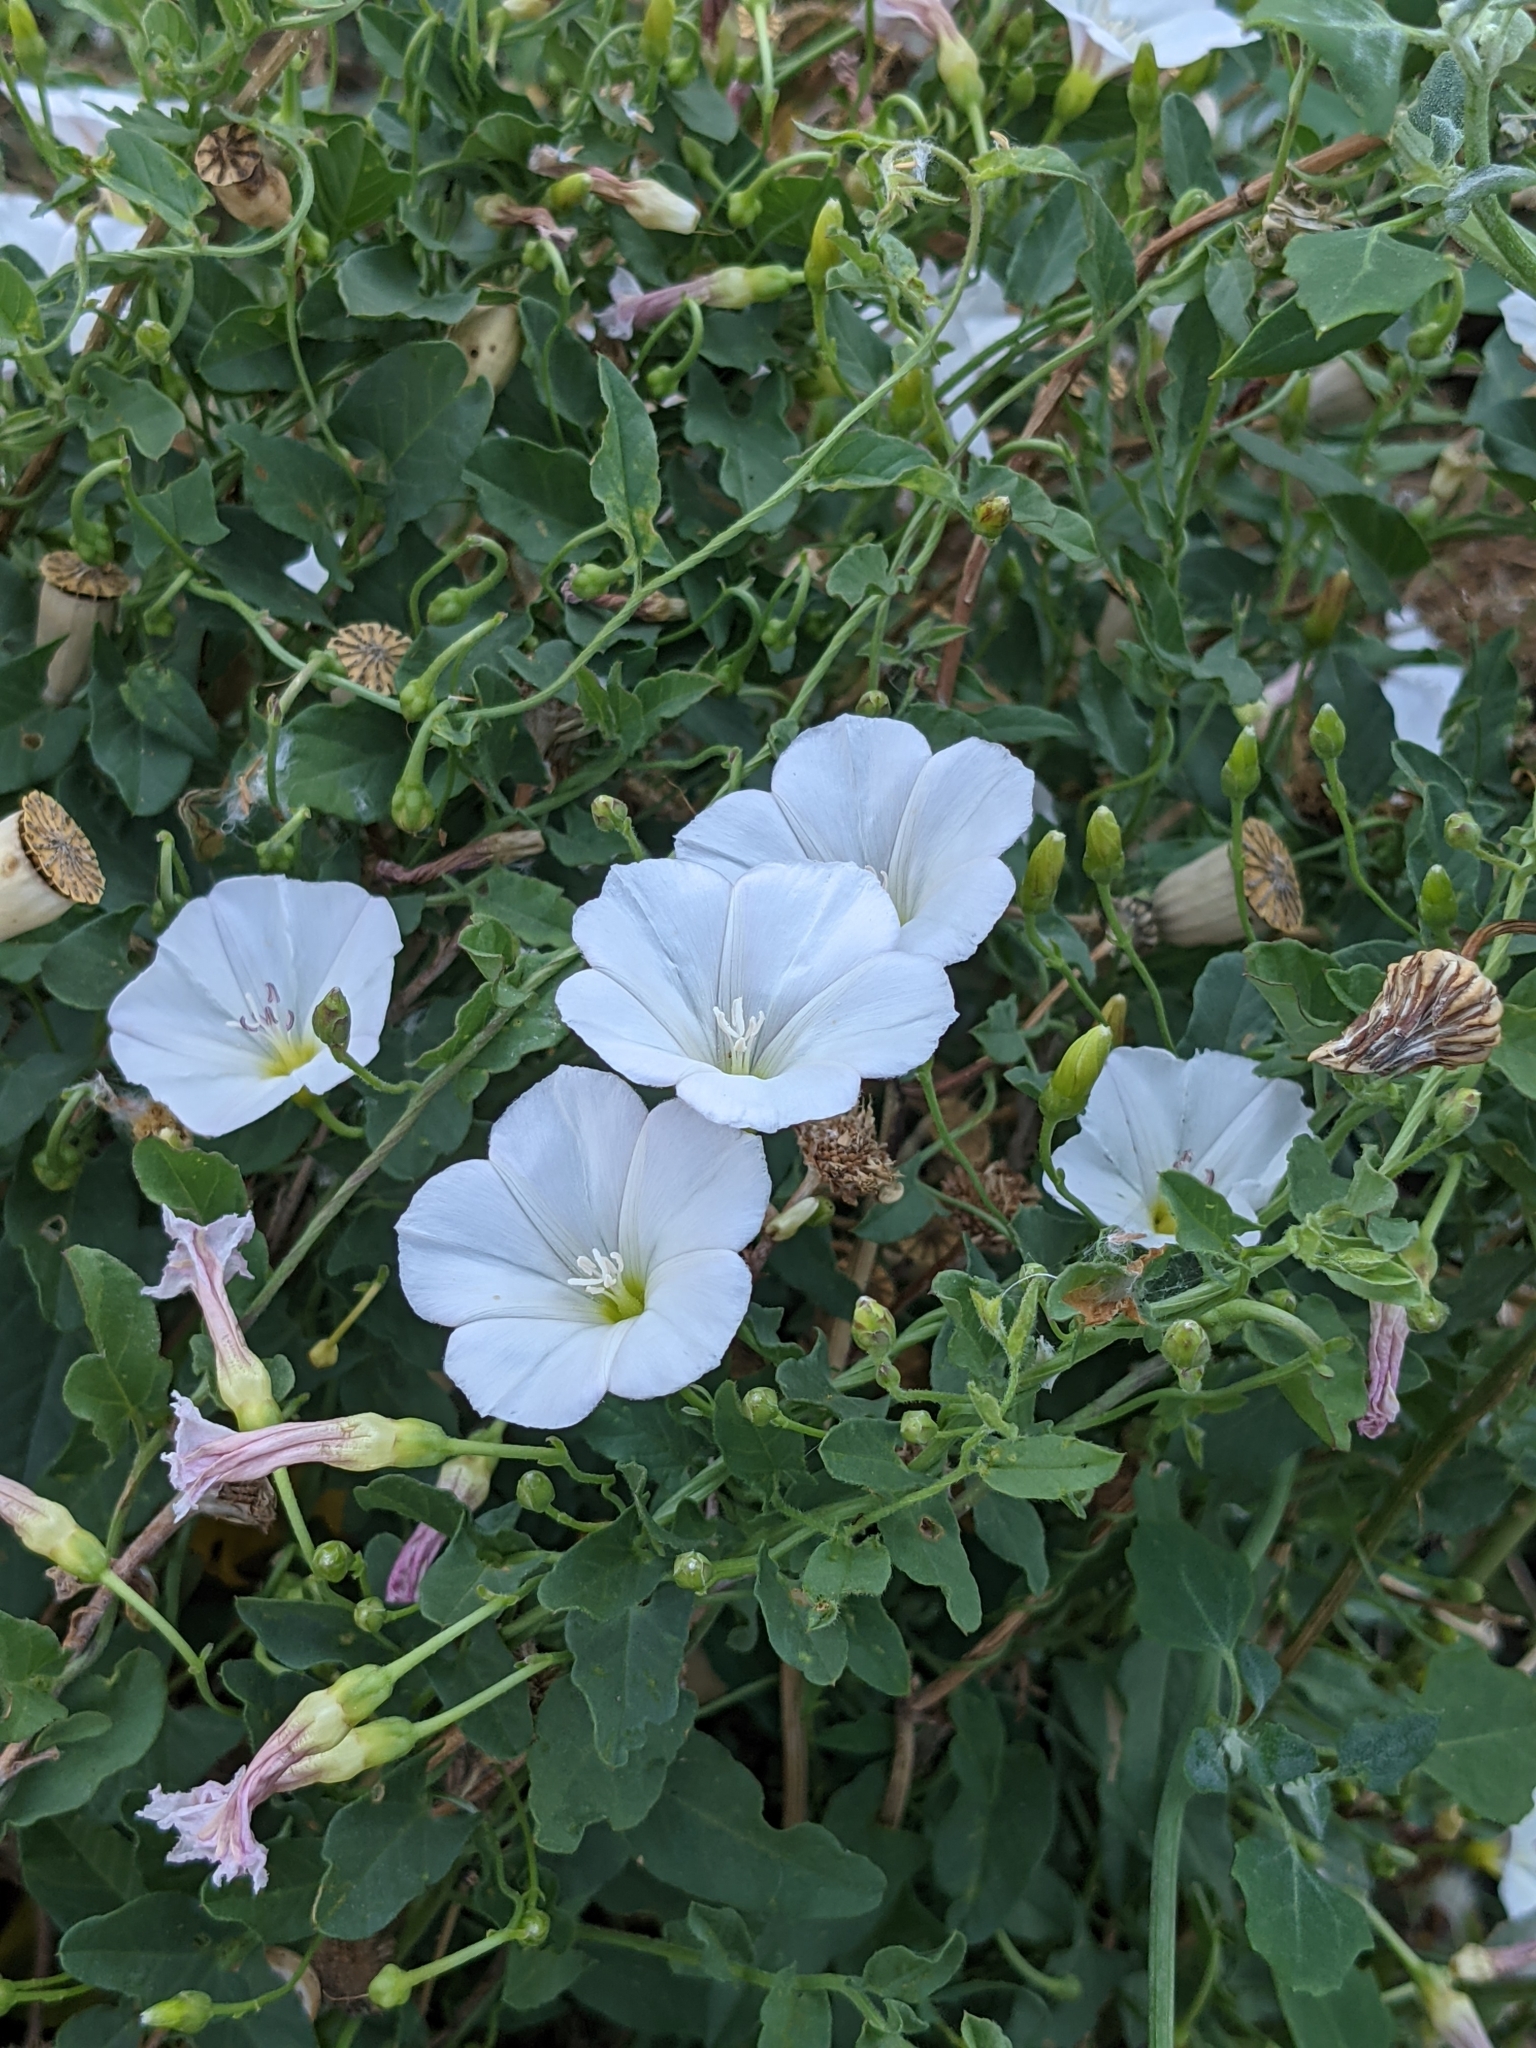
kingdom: Plantae
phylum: Tracheophyta
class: Magnoliopsida
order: Solanales
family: Convolvulaceae
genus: Convolvulus
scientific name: Convolvulus arvensis
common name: Field bindweed
